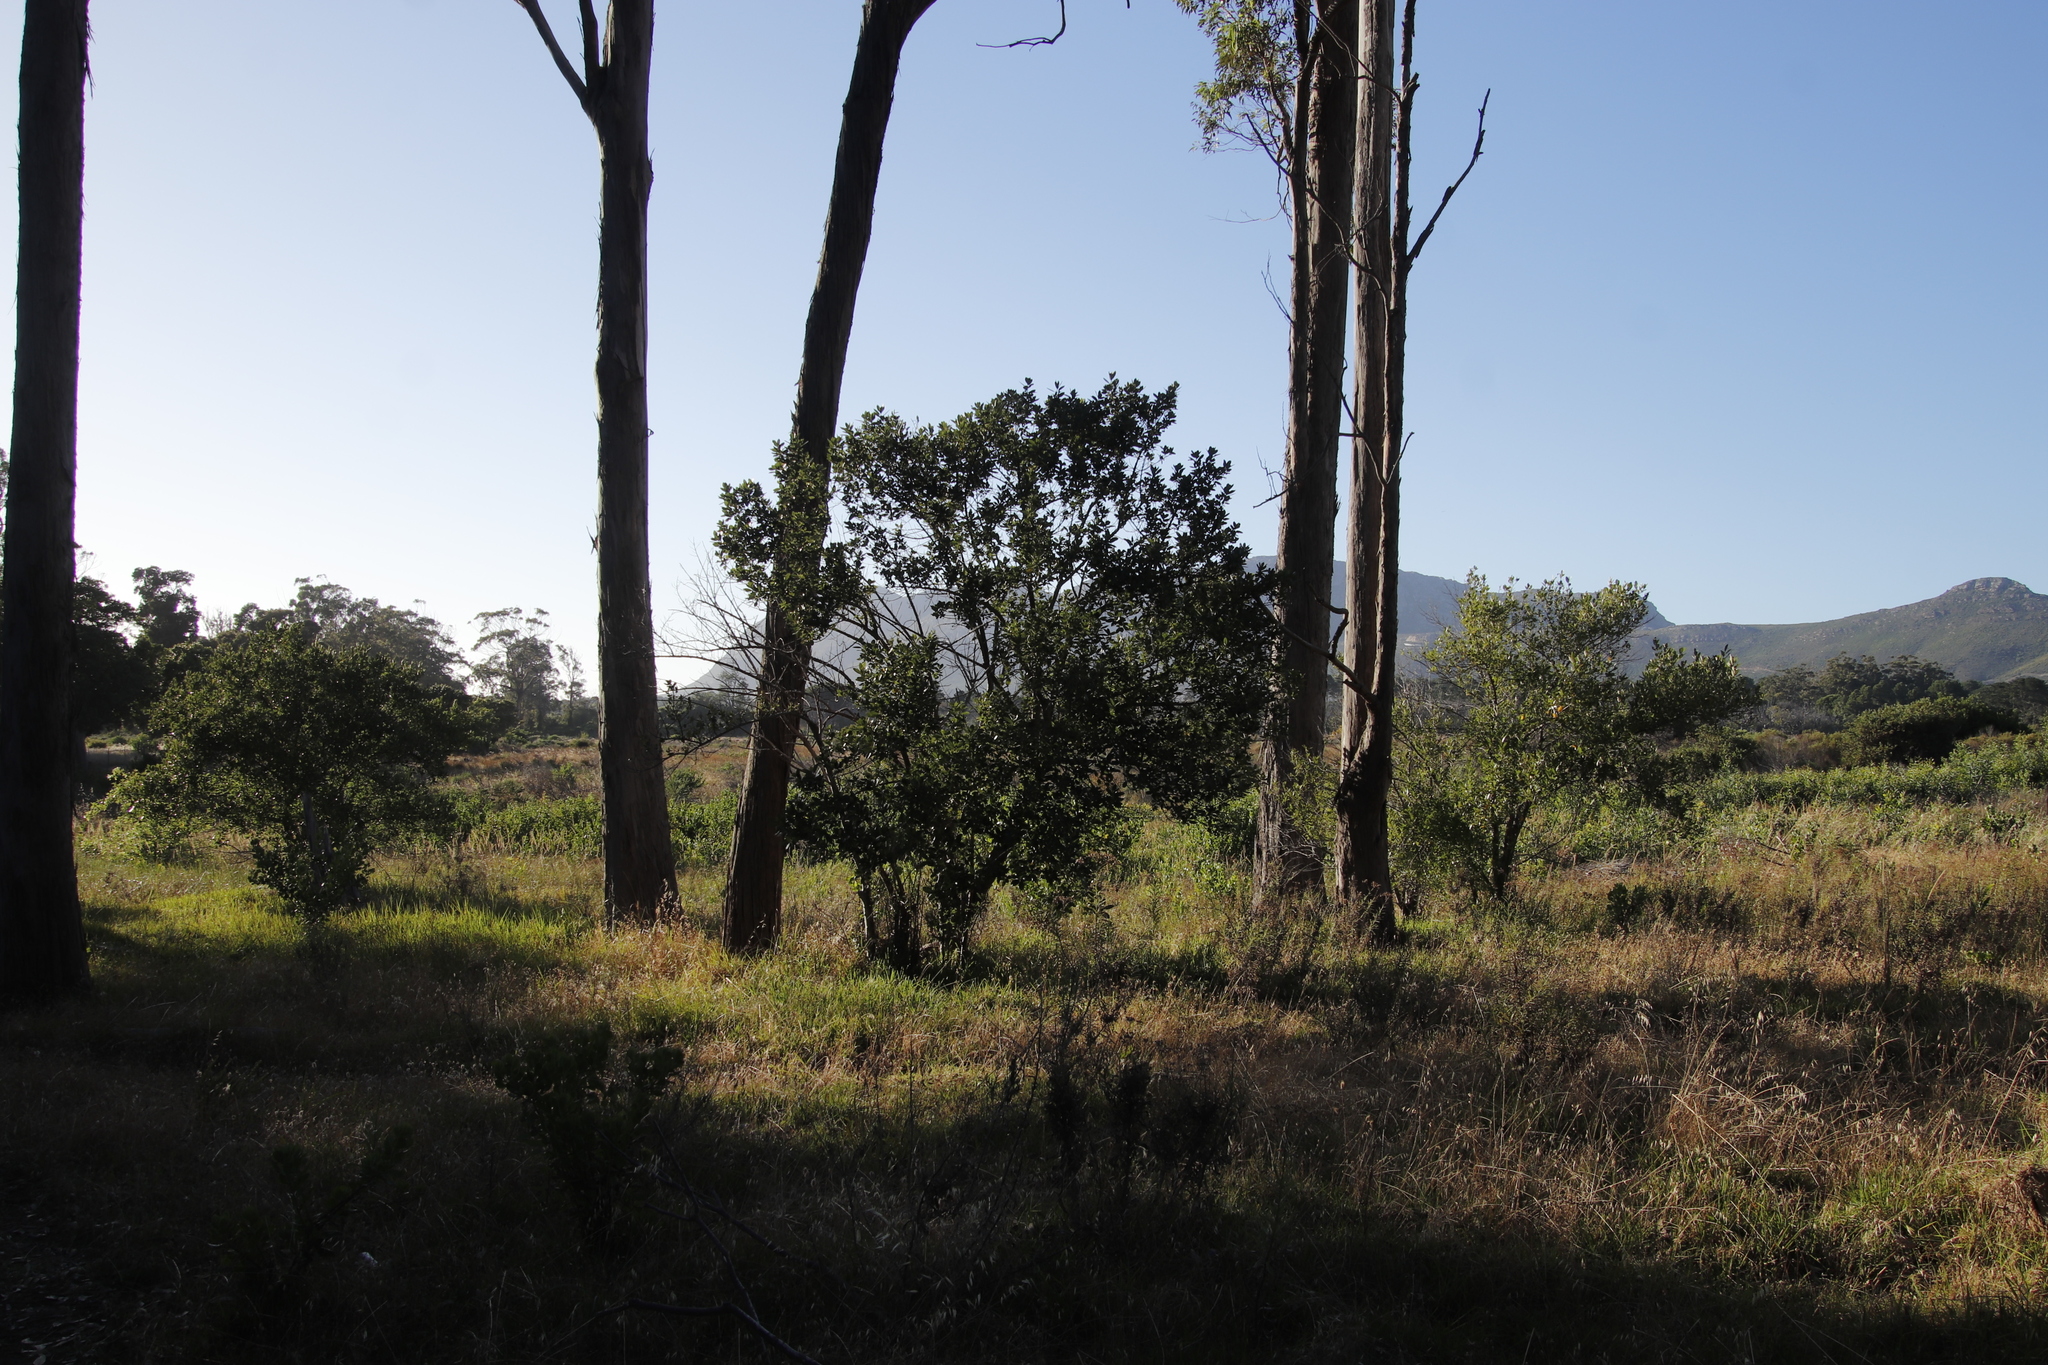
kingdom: Plantae
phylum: Tracheophyta
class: Magnoliopsida
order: Malpighiales
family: Achariaceae
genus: Kiggelaria
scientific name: Kiggelaria africana
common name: Wild peach
